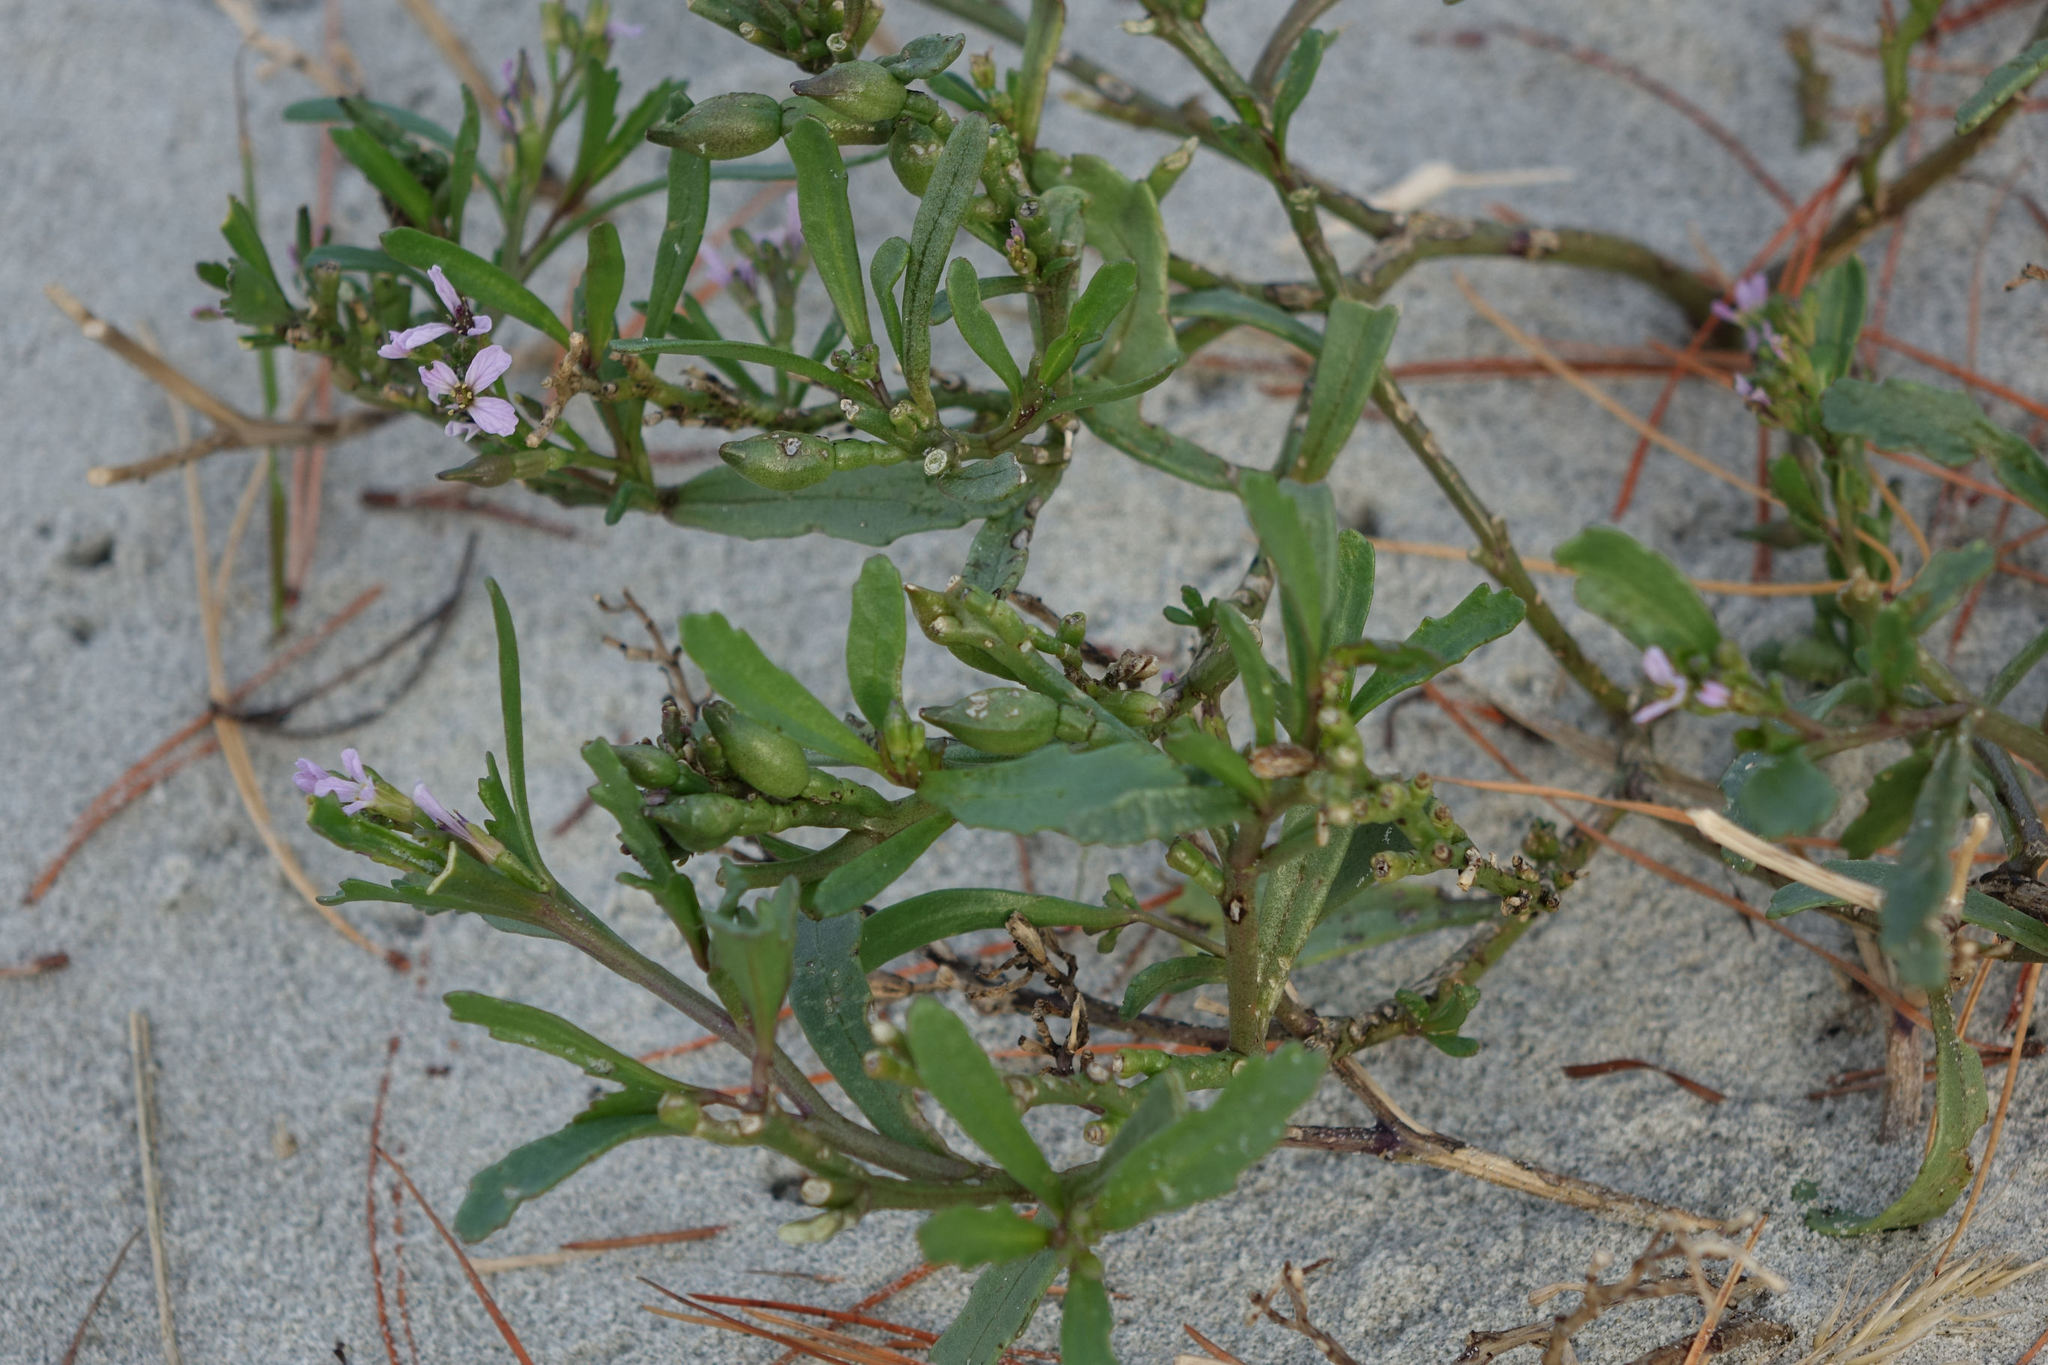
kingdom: Plantae
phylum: Tracheophyta
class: Magnoliopsida
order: Brassicales
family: Brassicaceae
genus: Cakile
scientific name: Cakile edentula
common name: American sea rocket
